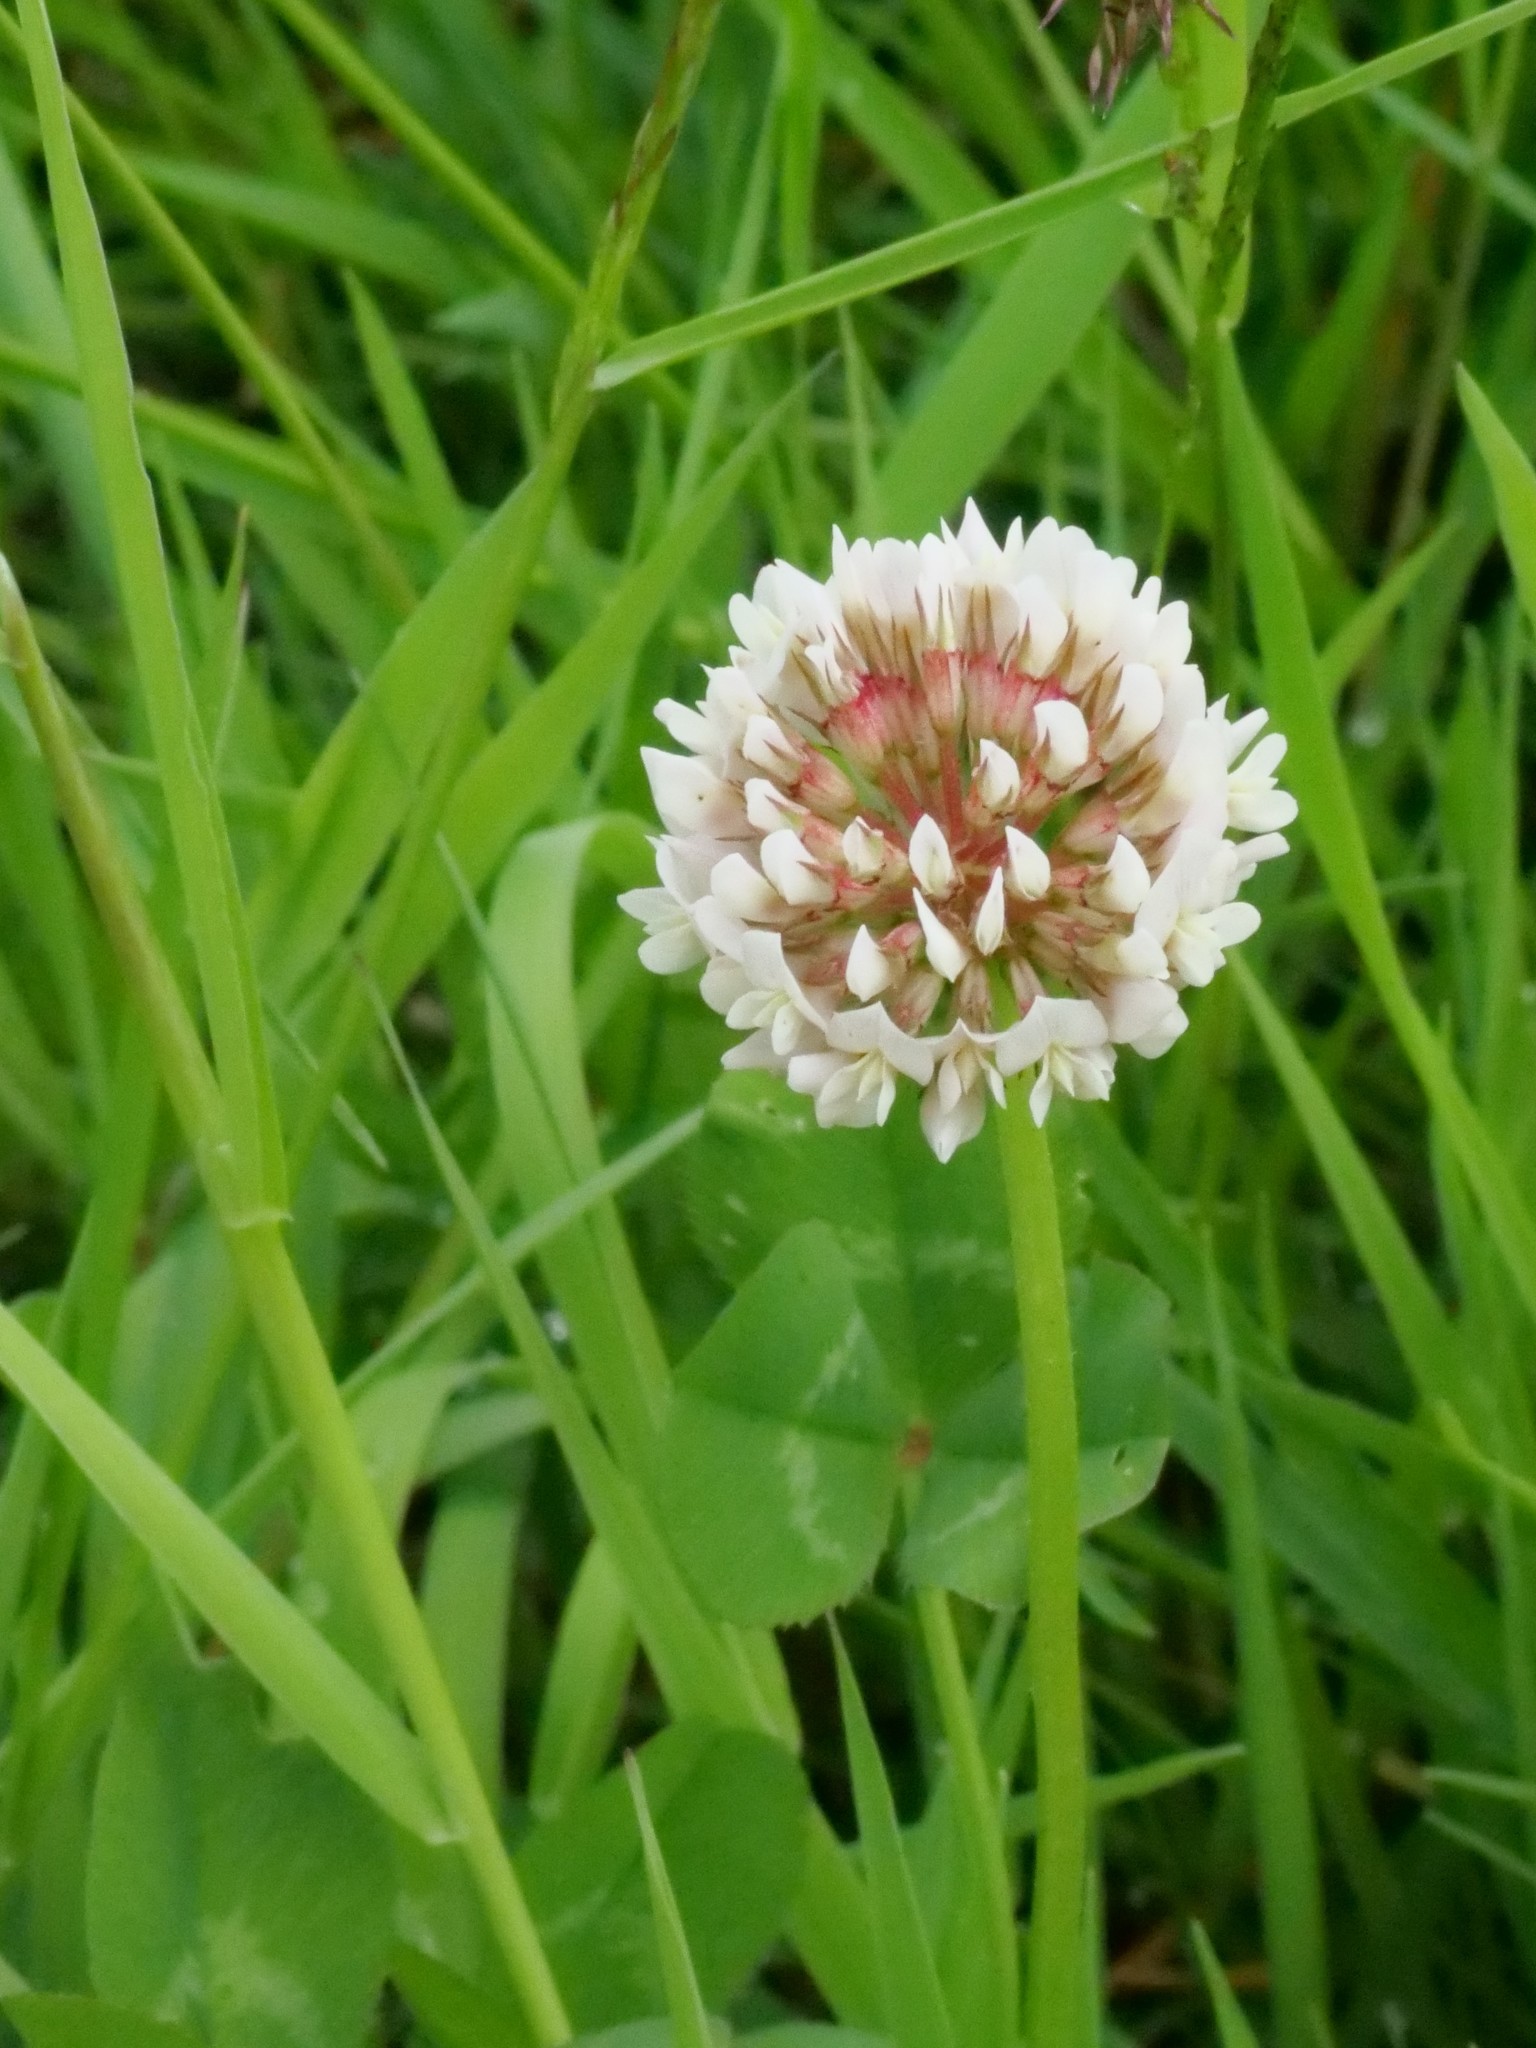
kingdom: Plantae
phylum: Tracheophyta
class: Magnoliopsida
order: Fabales
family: Fabaceae
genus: Trifolium
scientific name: Trifolium repens
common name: White clover
